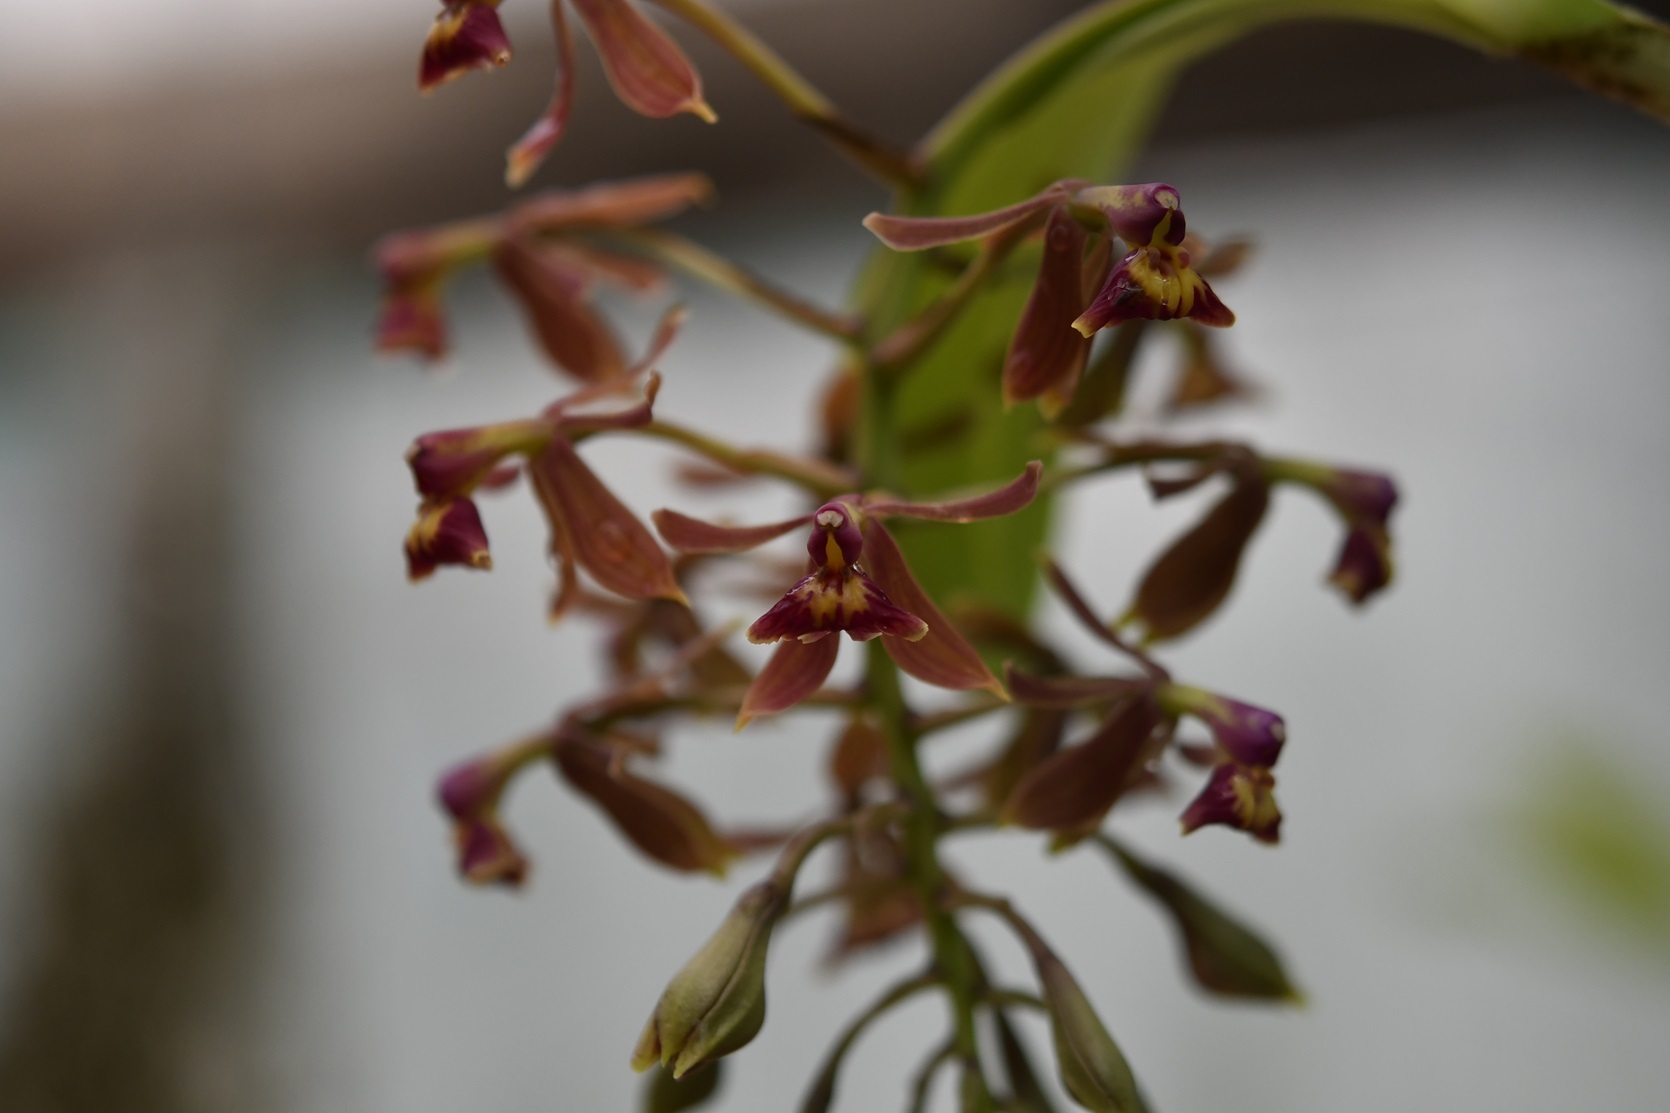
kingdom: Plantae
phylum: Tracheophyta
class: Liliopsida
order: Asparagales
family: Orchidaceae
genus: Epidendrum
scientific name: Epidendrum radioferens
